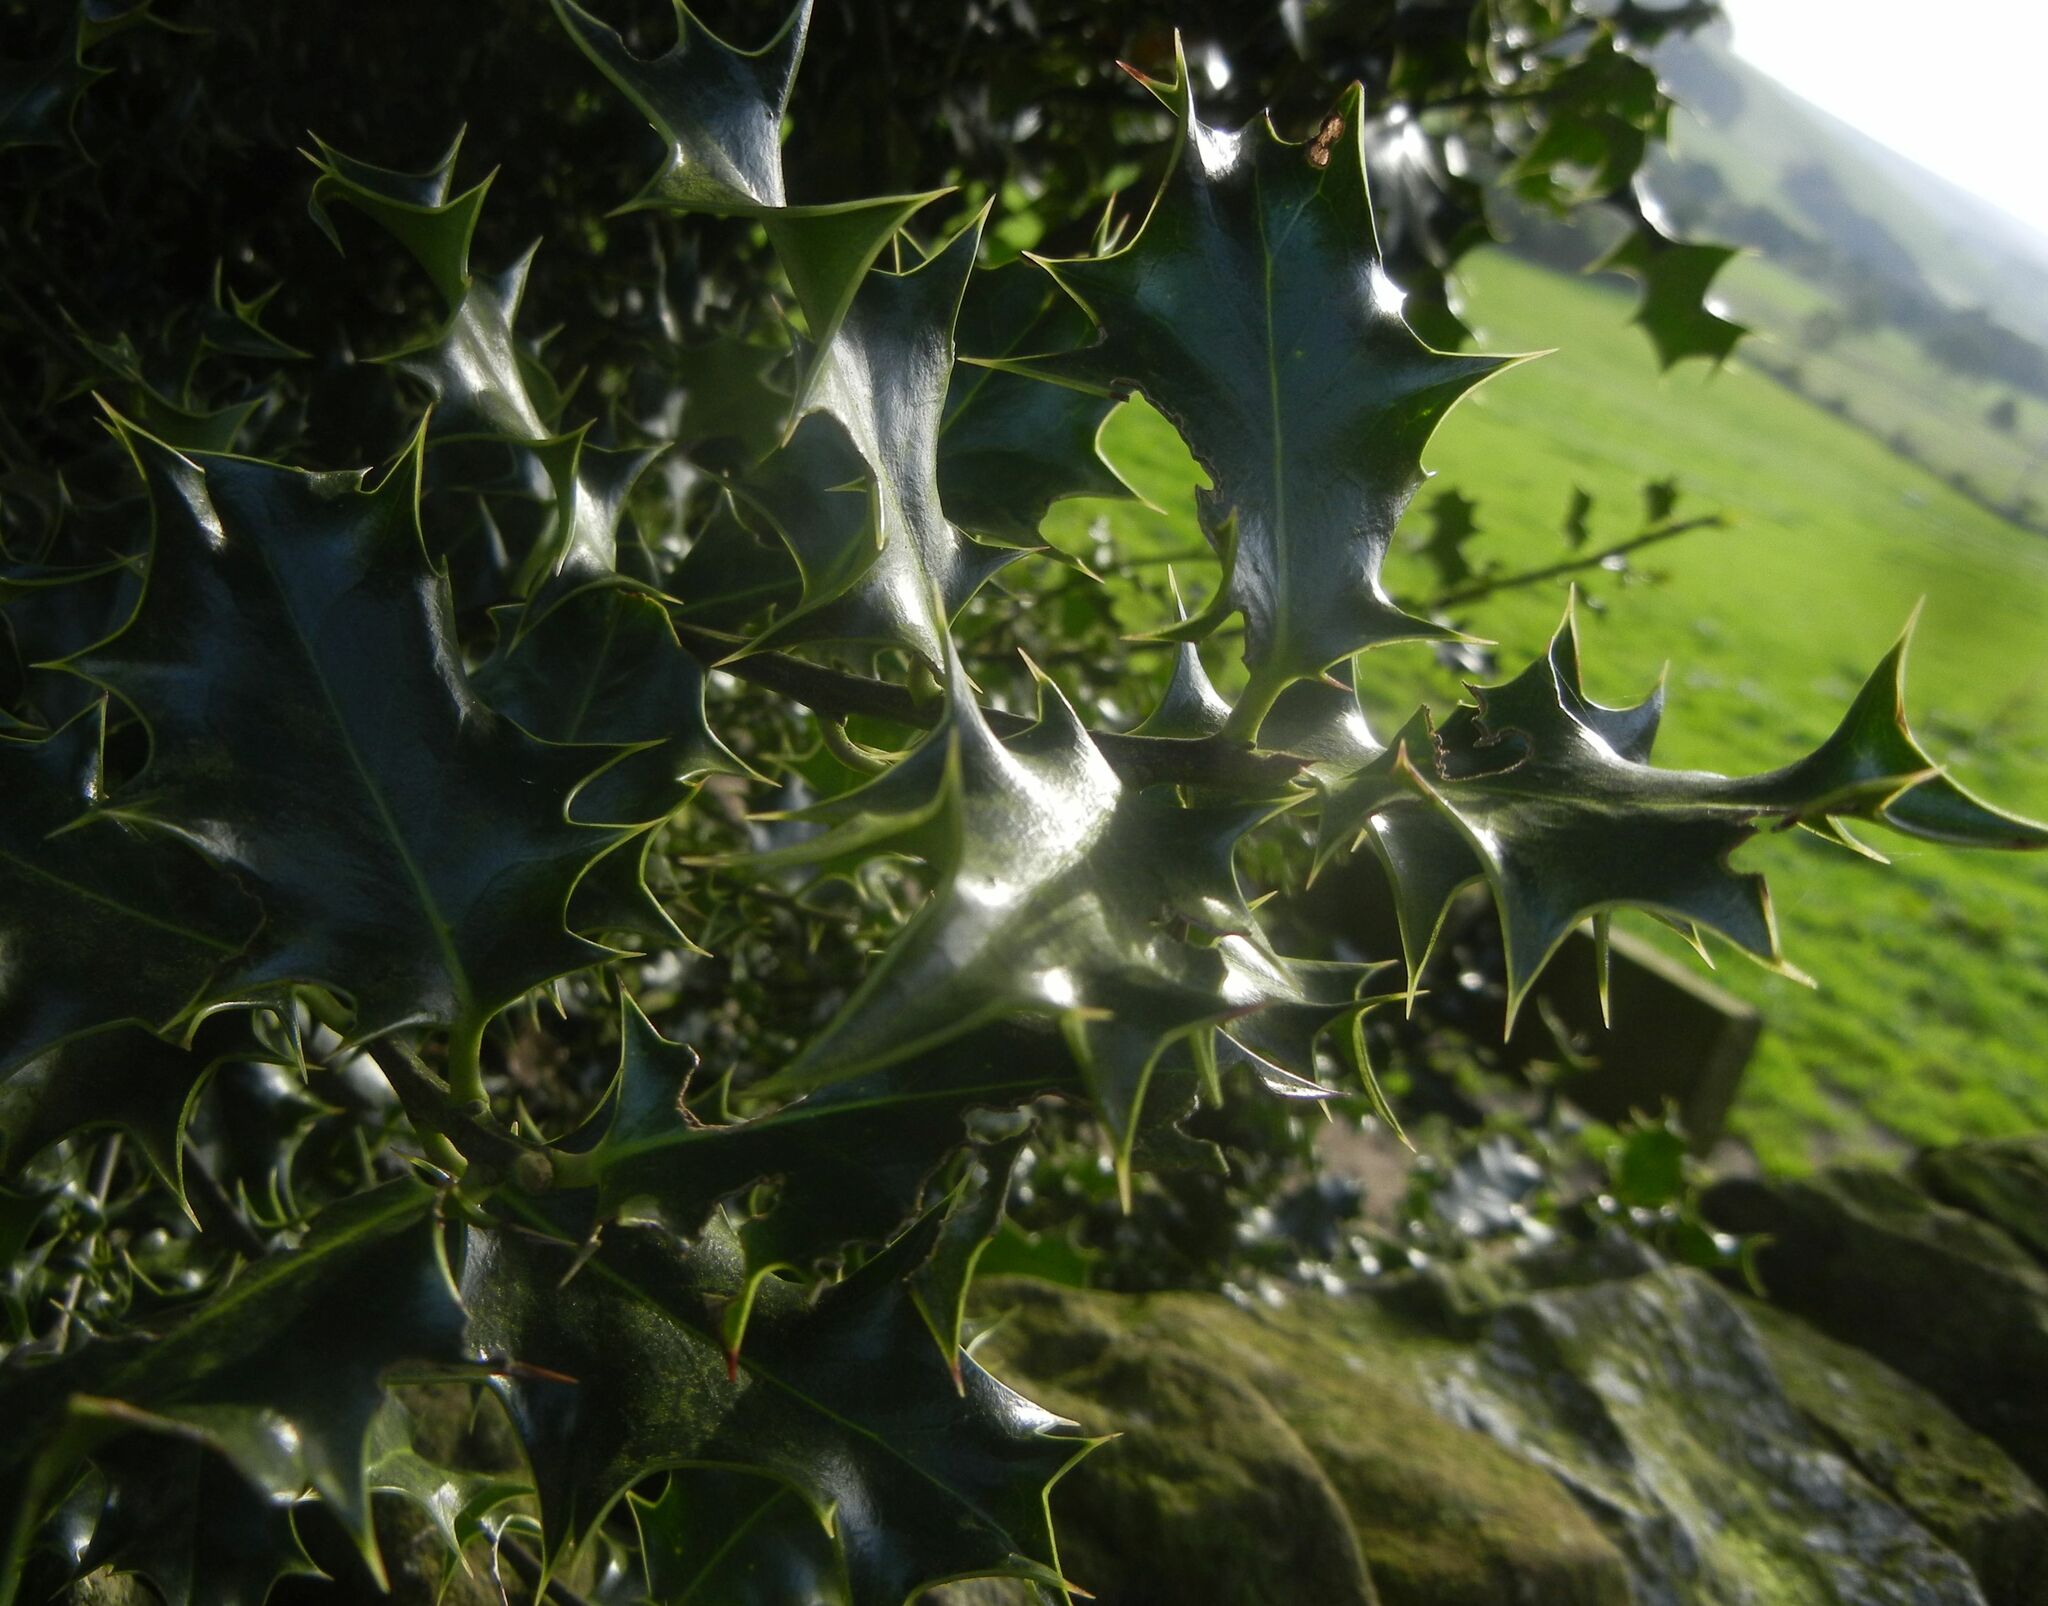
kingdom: Plantae
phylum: Tracheophyta
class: Magnoliopsida
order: Aquifoliales
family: Aquifoliaceae
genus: Ilex
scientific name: Ilex aquifolium
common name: English holly
